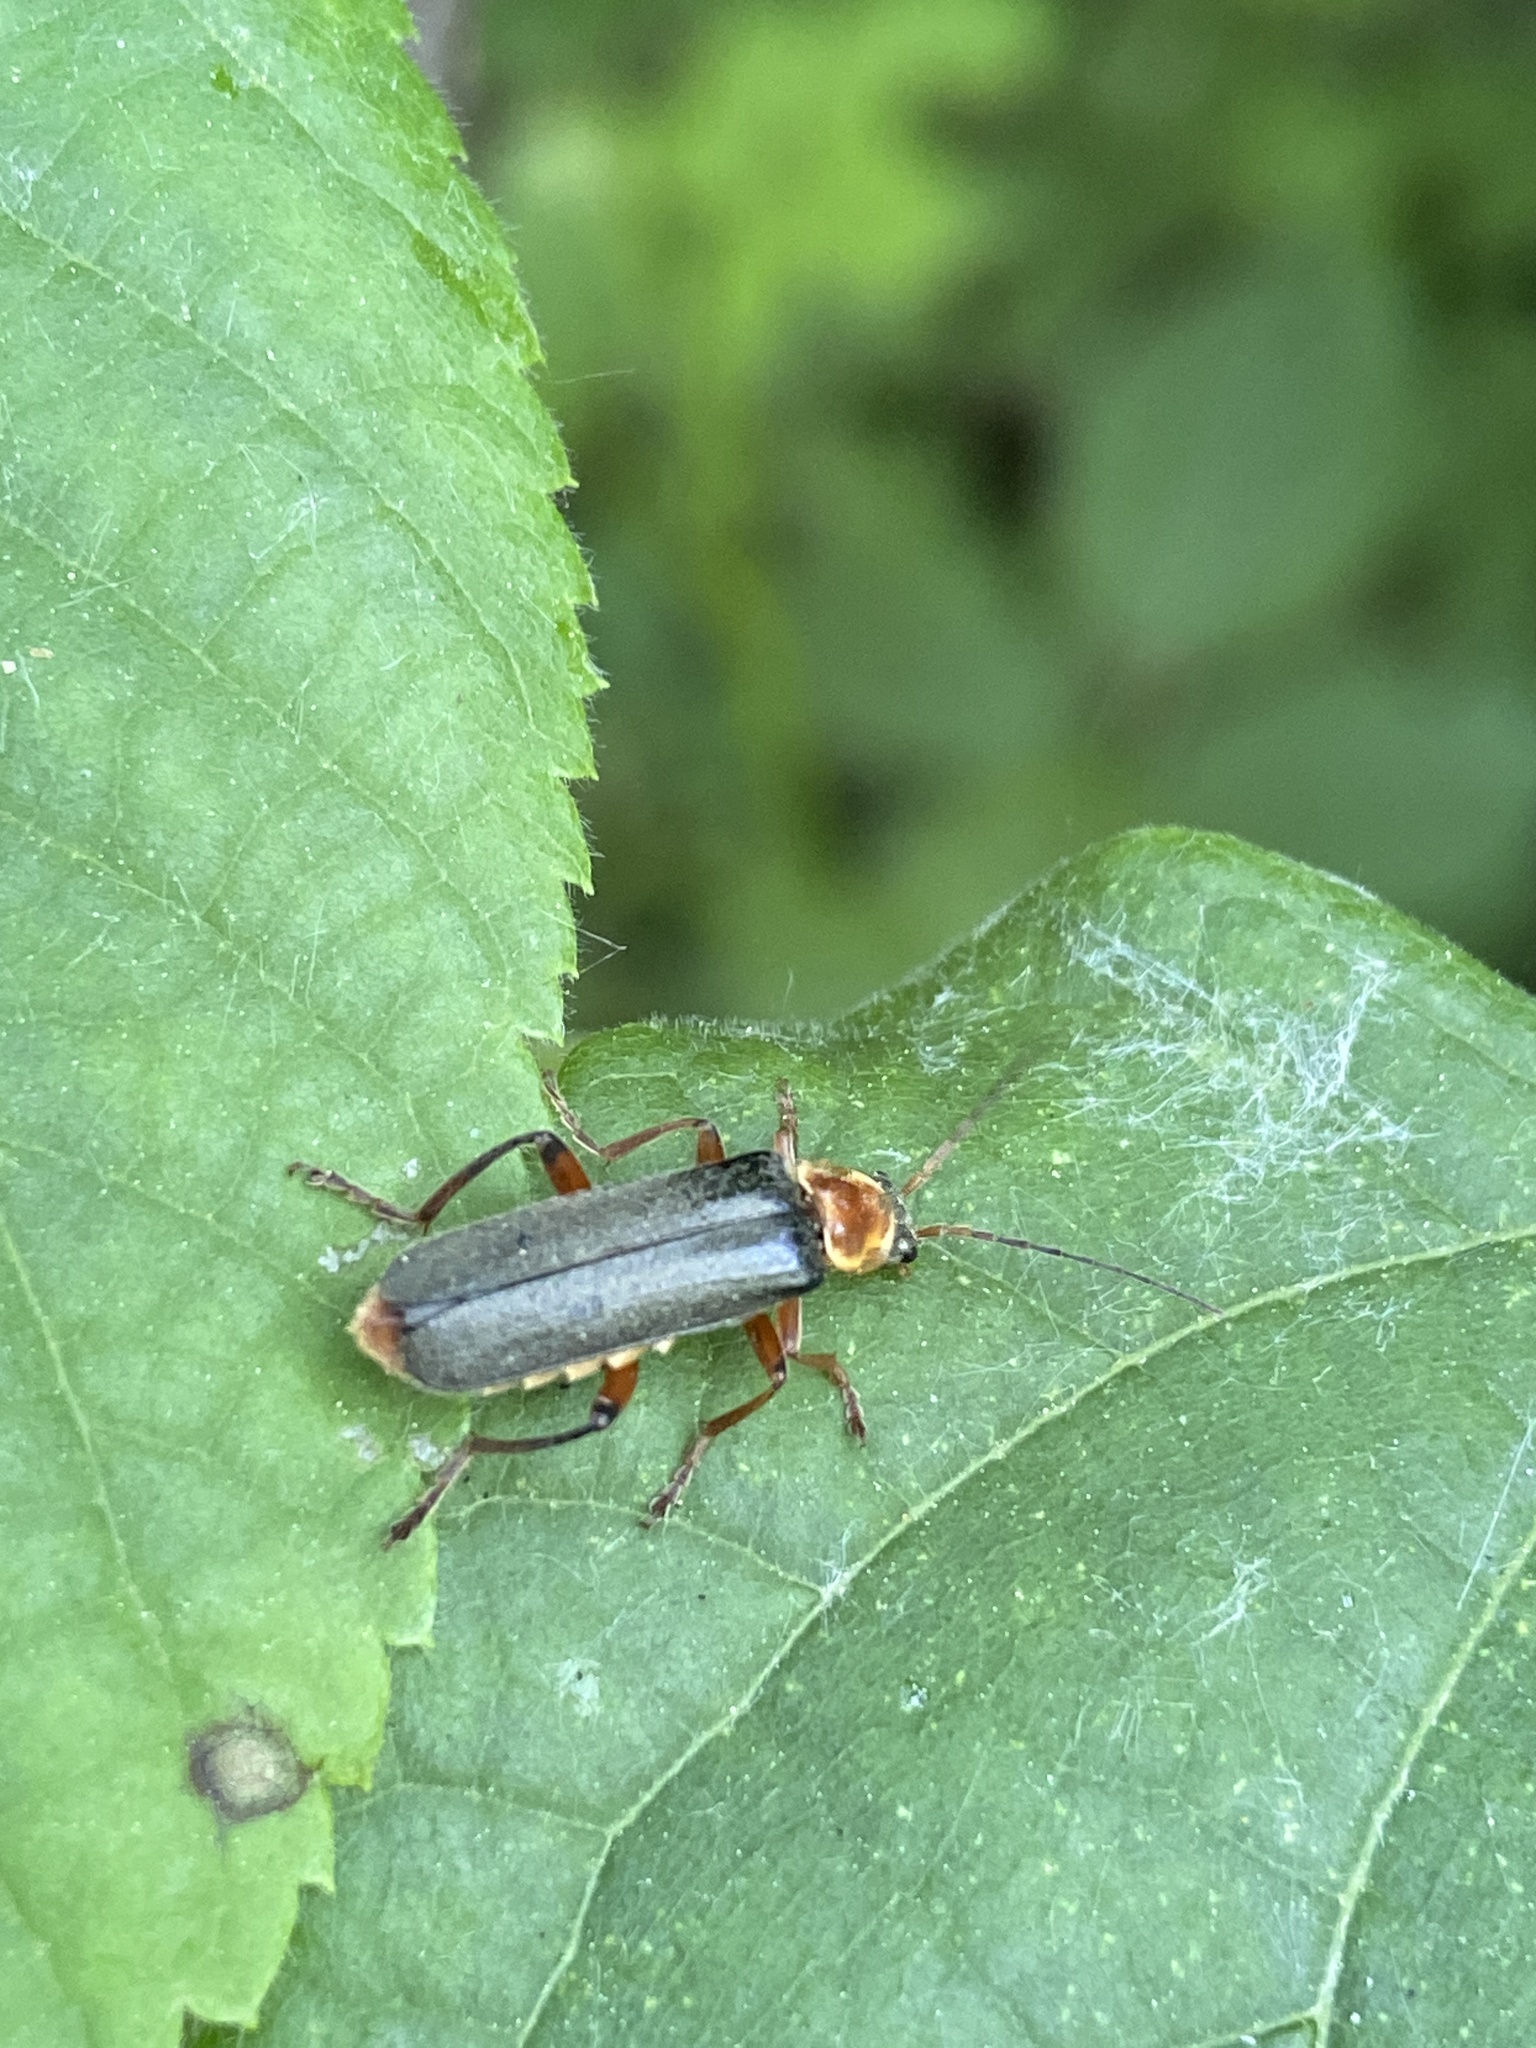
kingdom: Animalia
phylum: Arthropoda
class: Insecta
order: Coleoptera
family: Cantharidae
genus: Cantharis
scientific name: Cantharis nigricans
